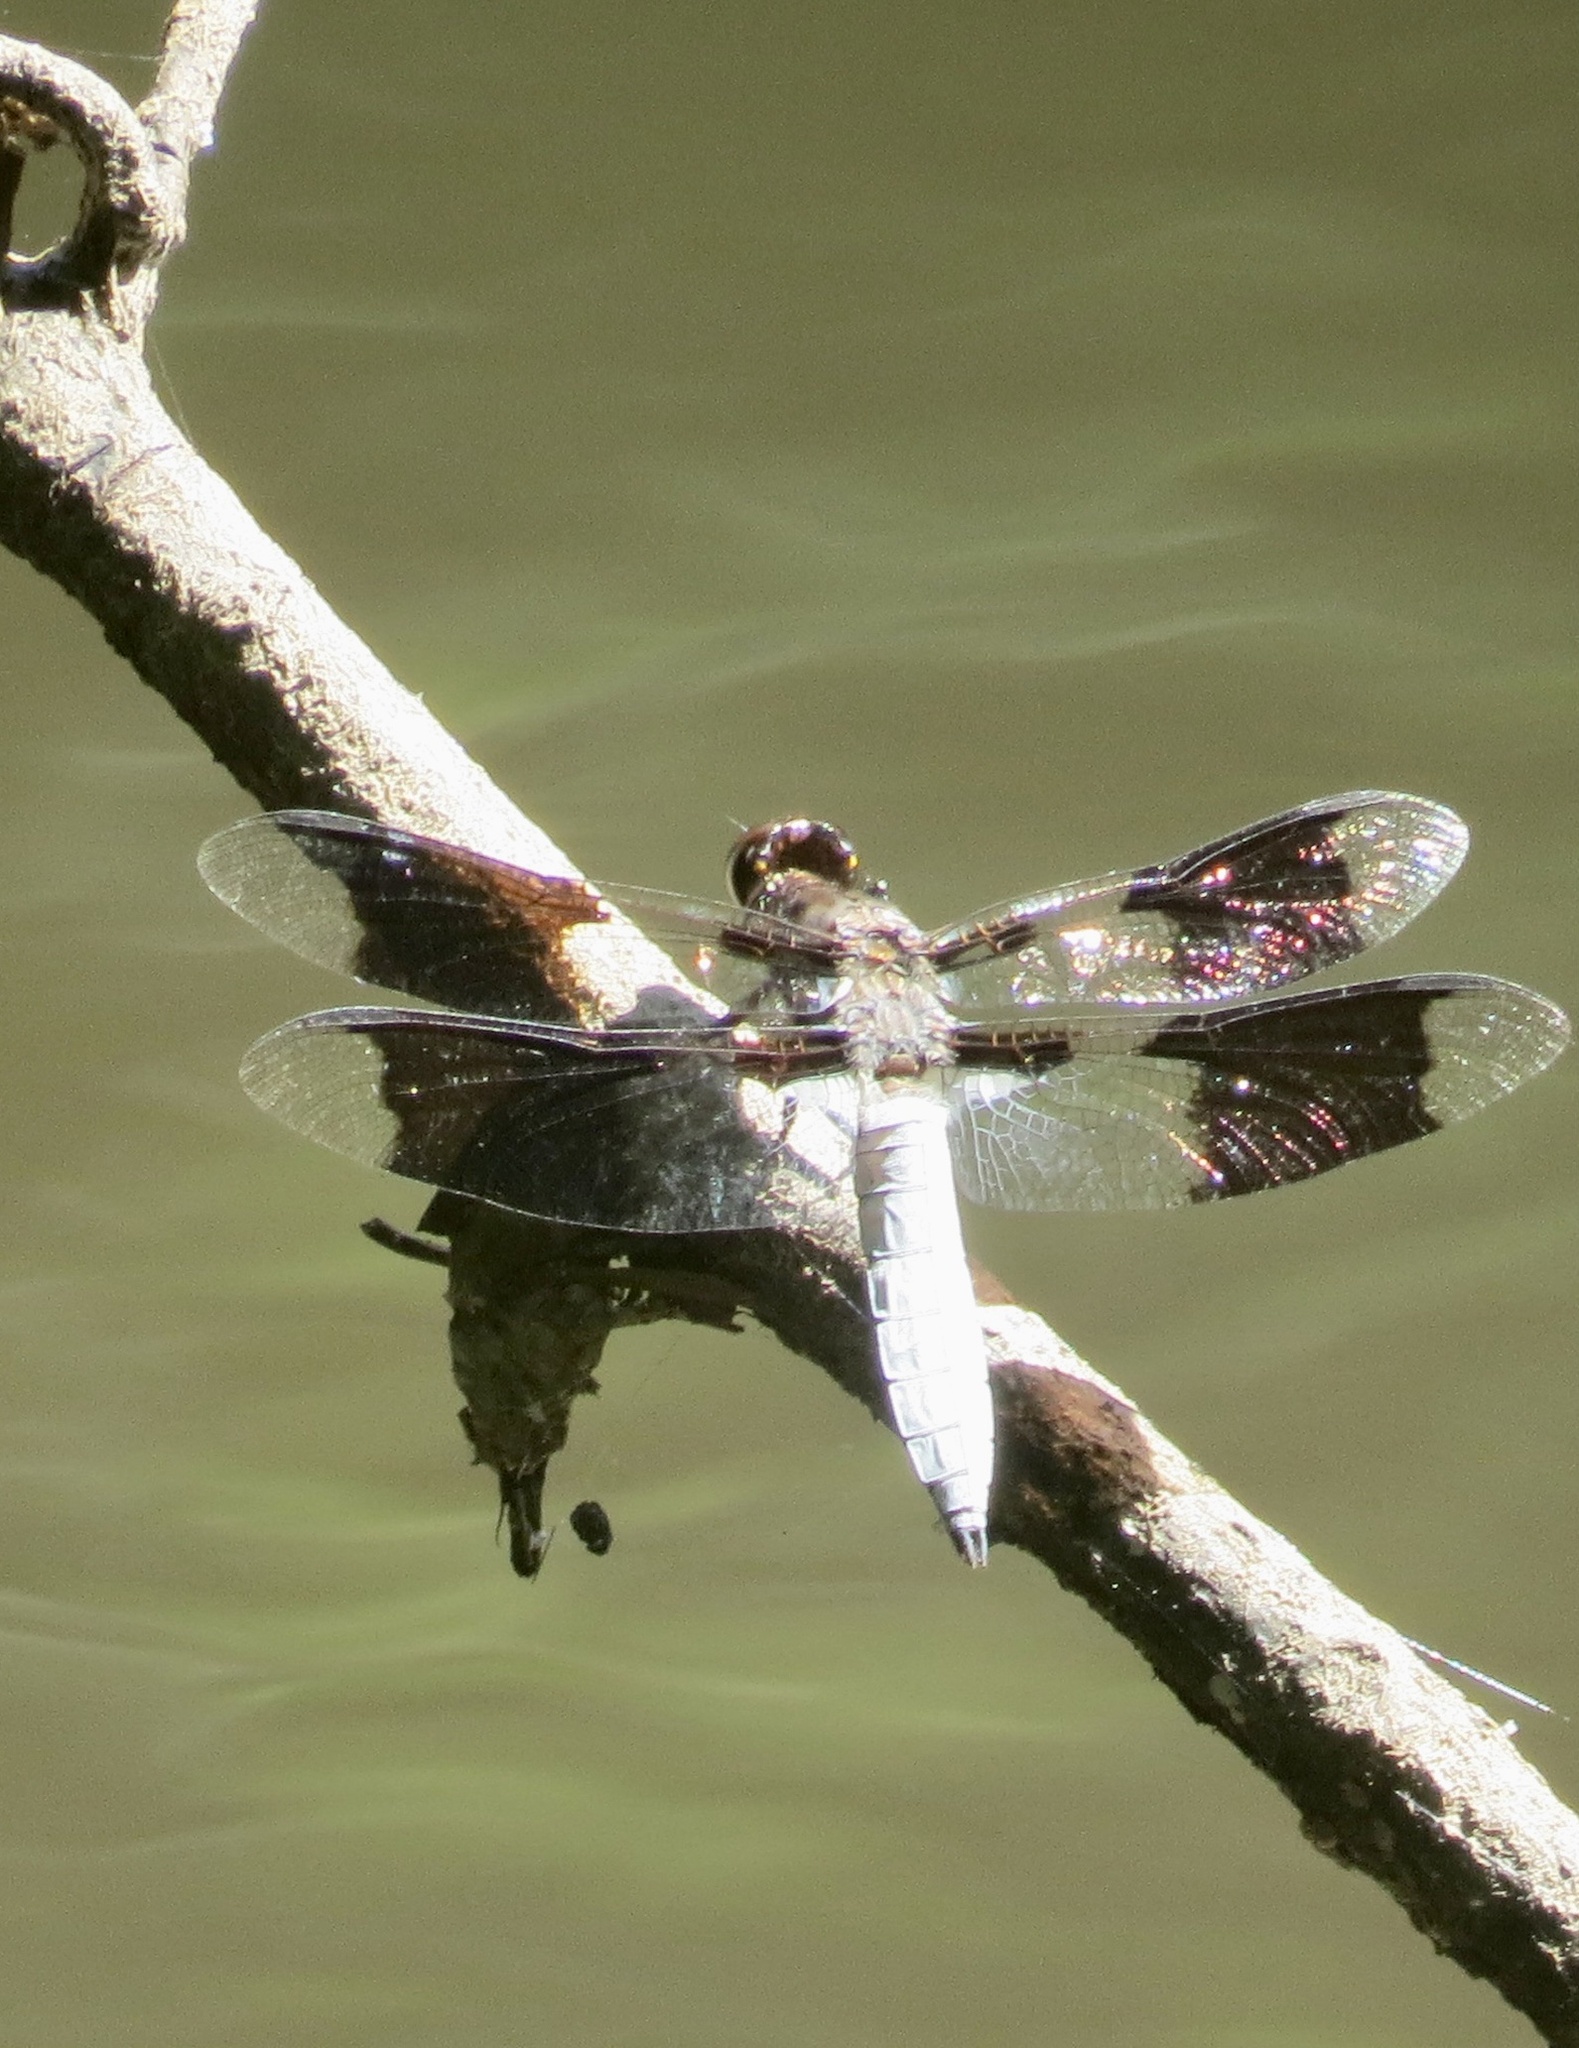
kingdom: Animalia
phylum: Arthropoda
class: Insecta
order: Odonata
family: Libellulidae
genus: Plathemis
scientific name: Plathemis lydia
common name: Common whitetail
